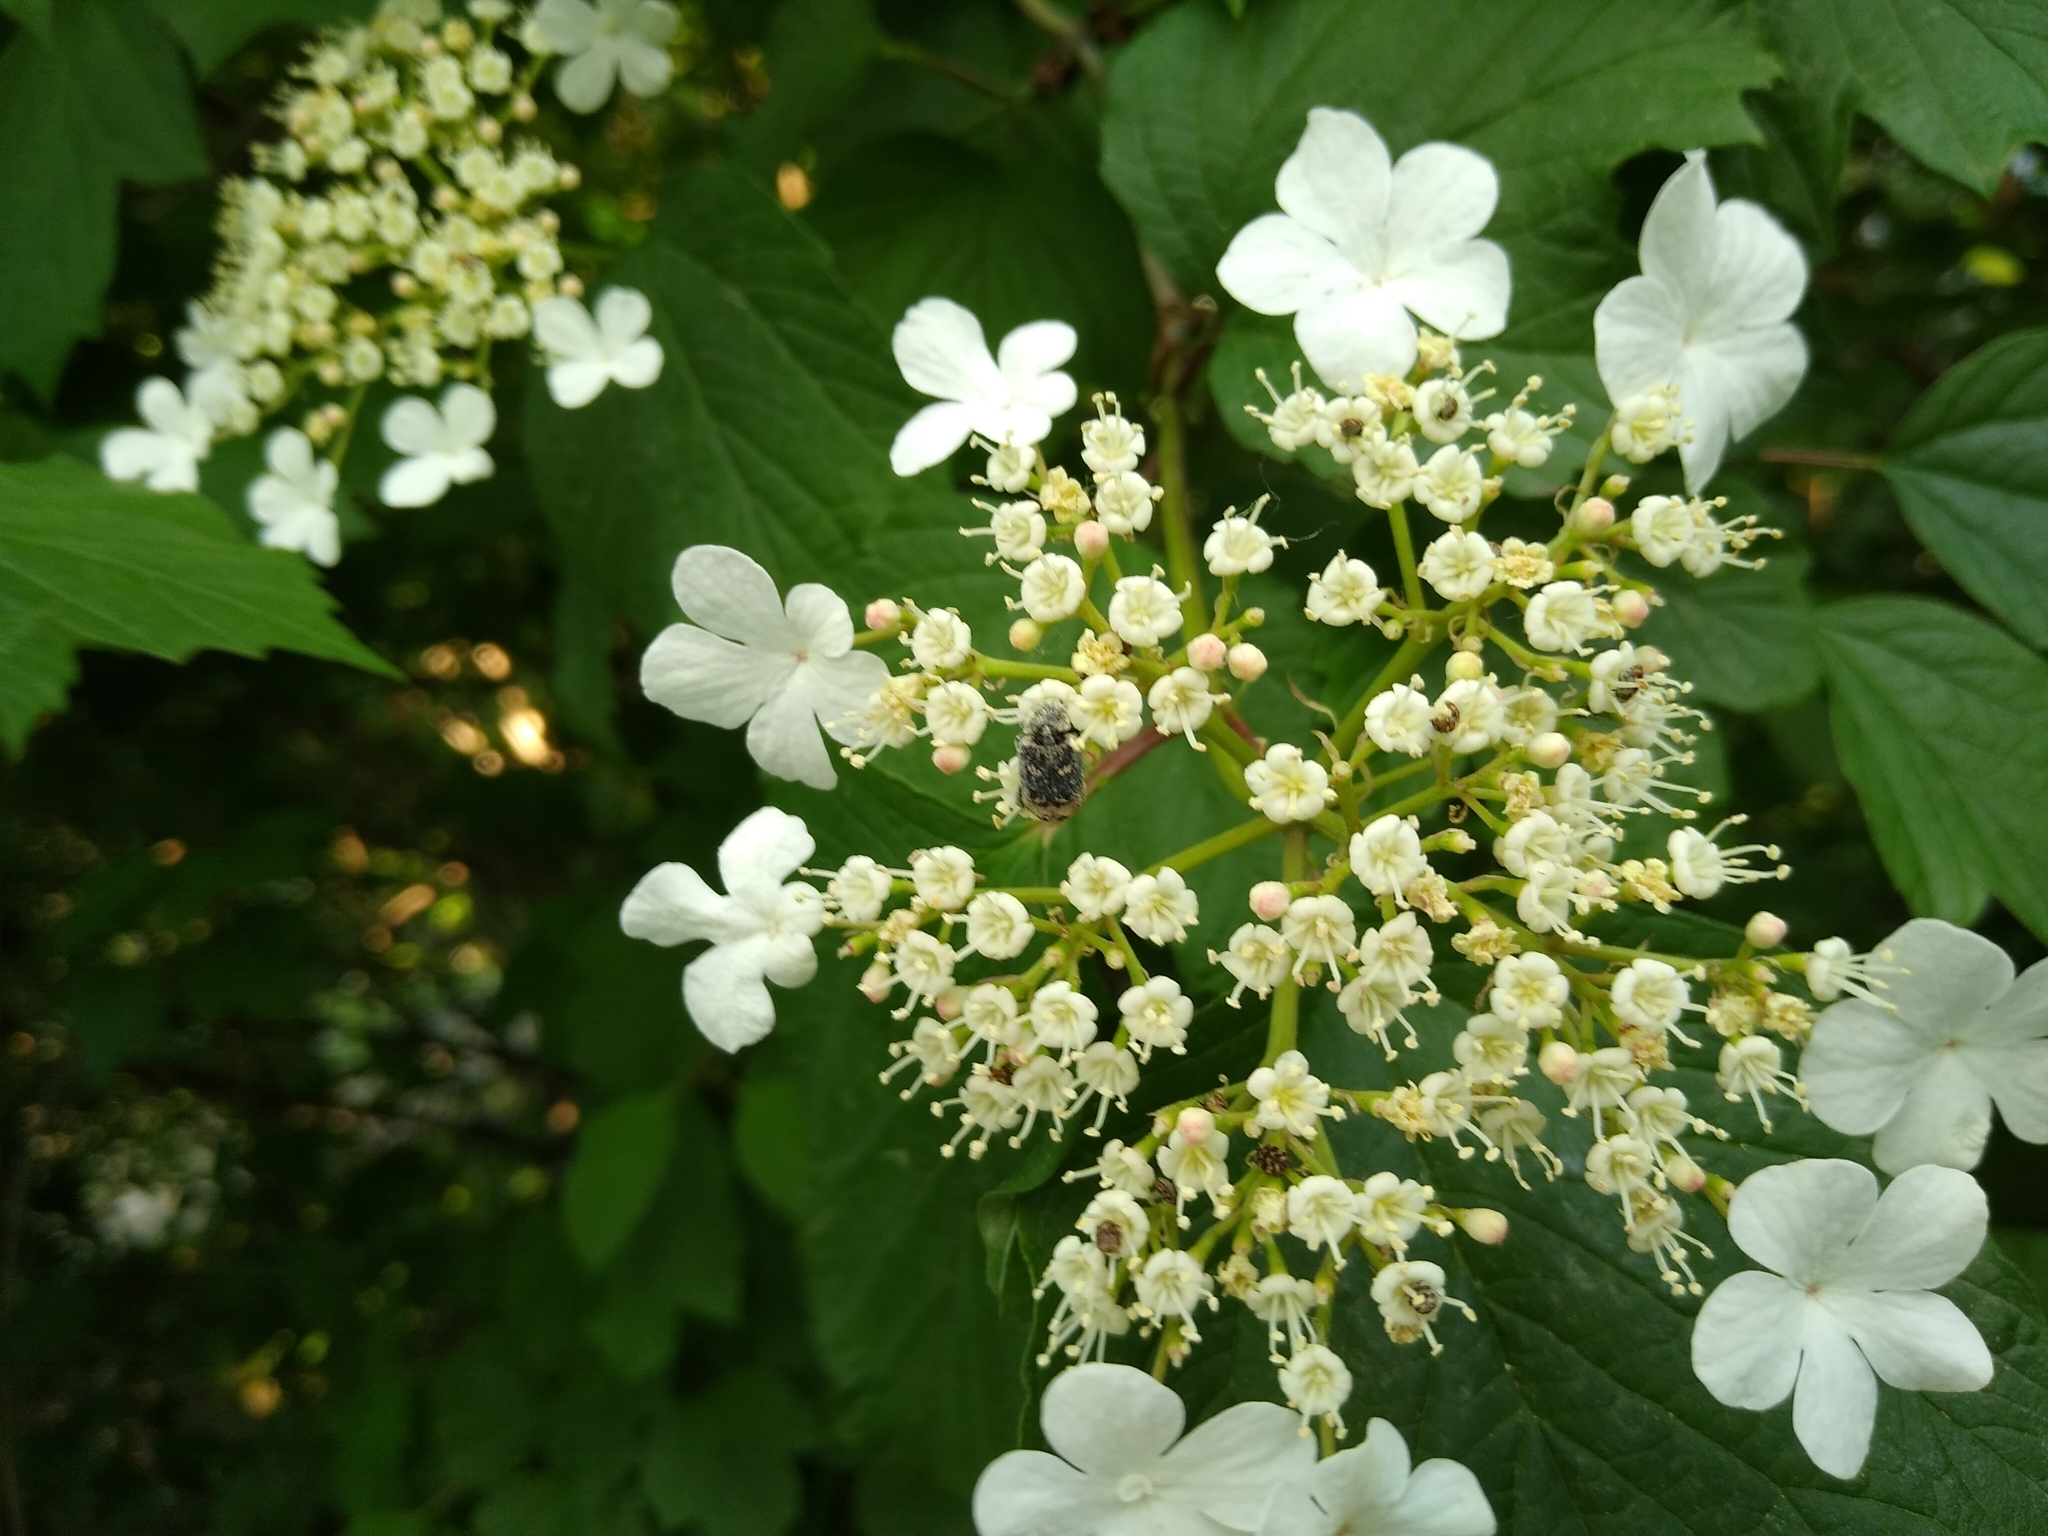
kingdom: Plantae
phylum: Tracheophyta
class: Magnoliopsida
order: Dipsacales
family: Viburnaceae
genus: Viburnum
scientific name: Viburnum opulus
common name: Guelder-rose
